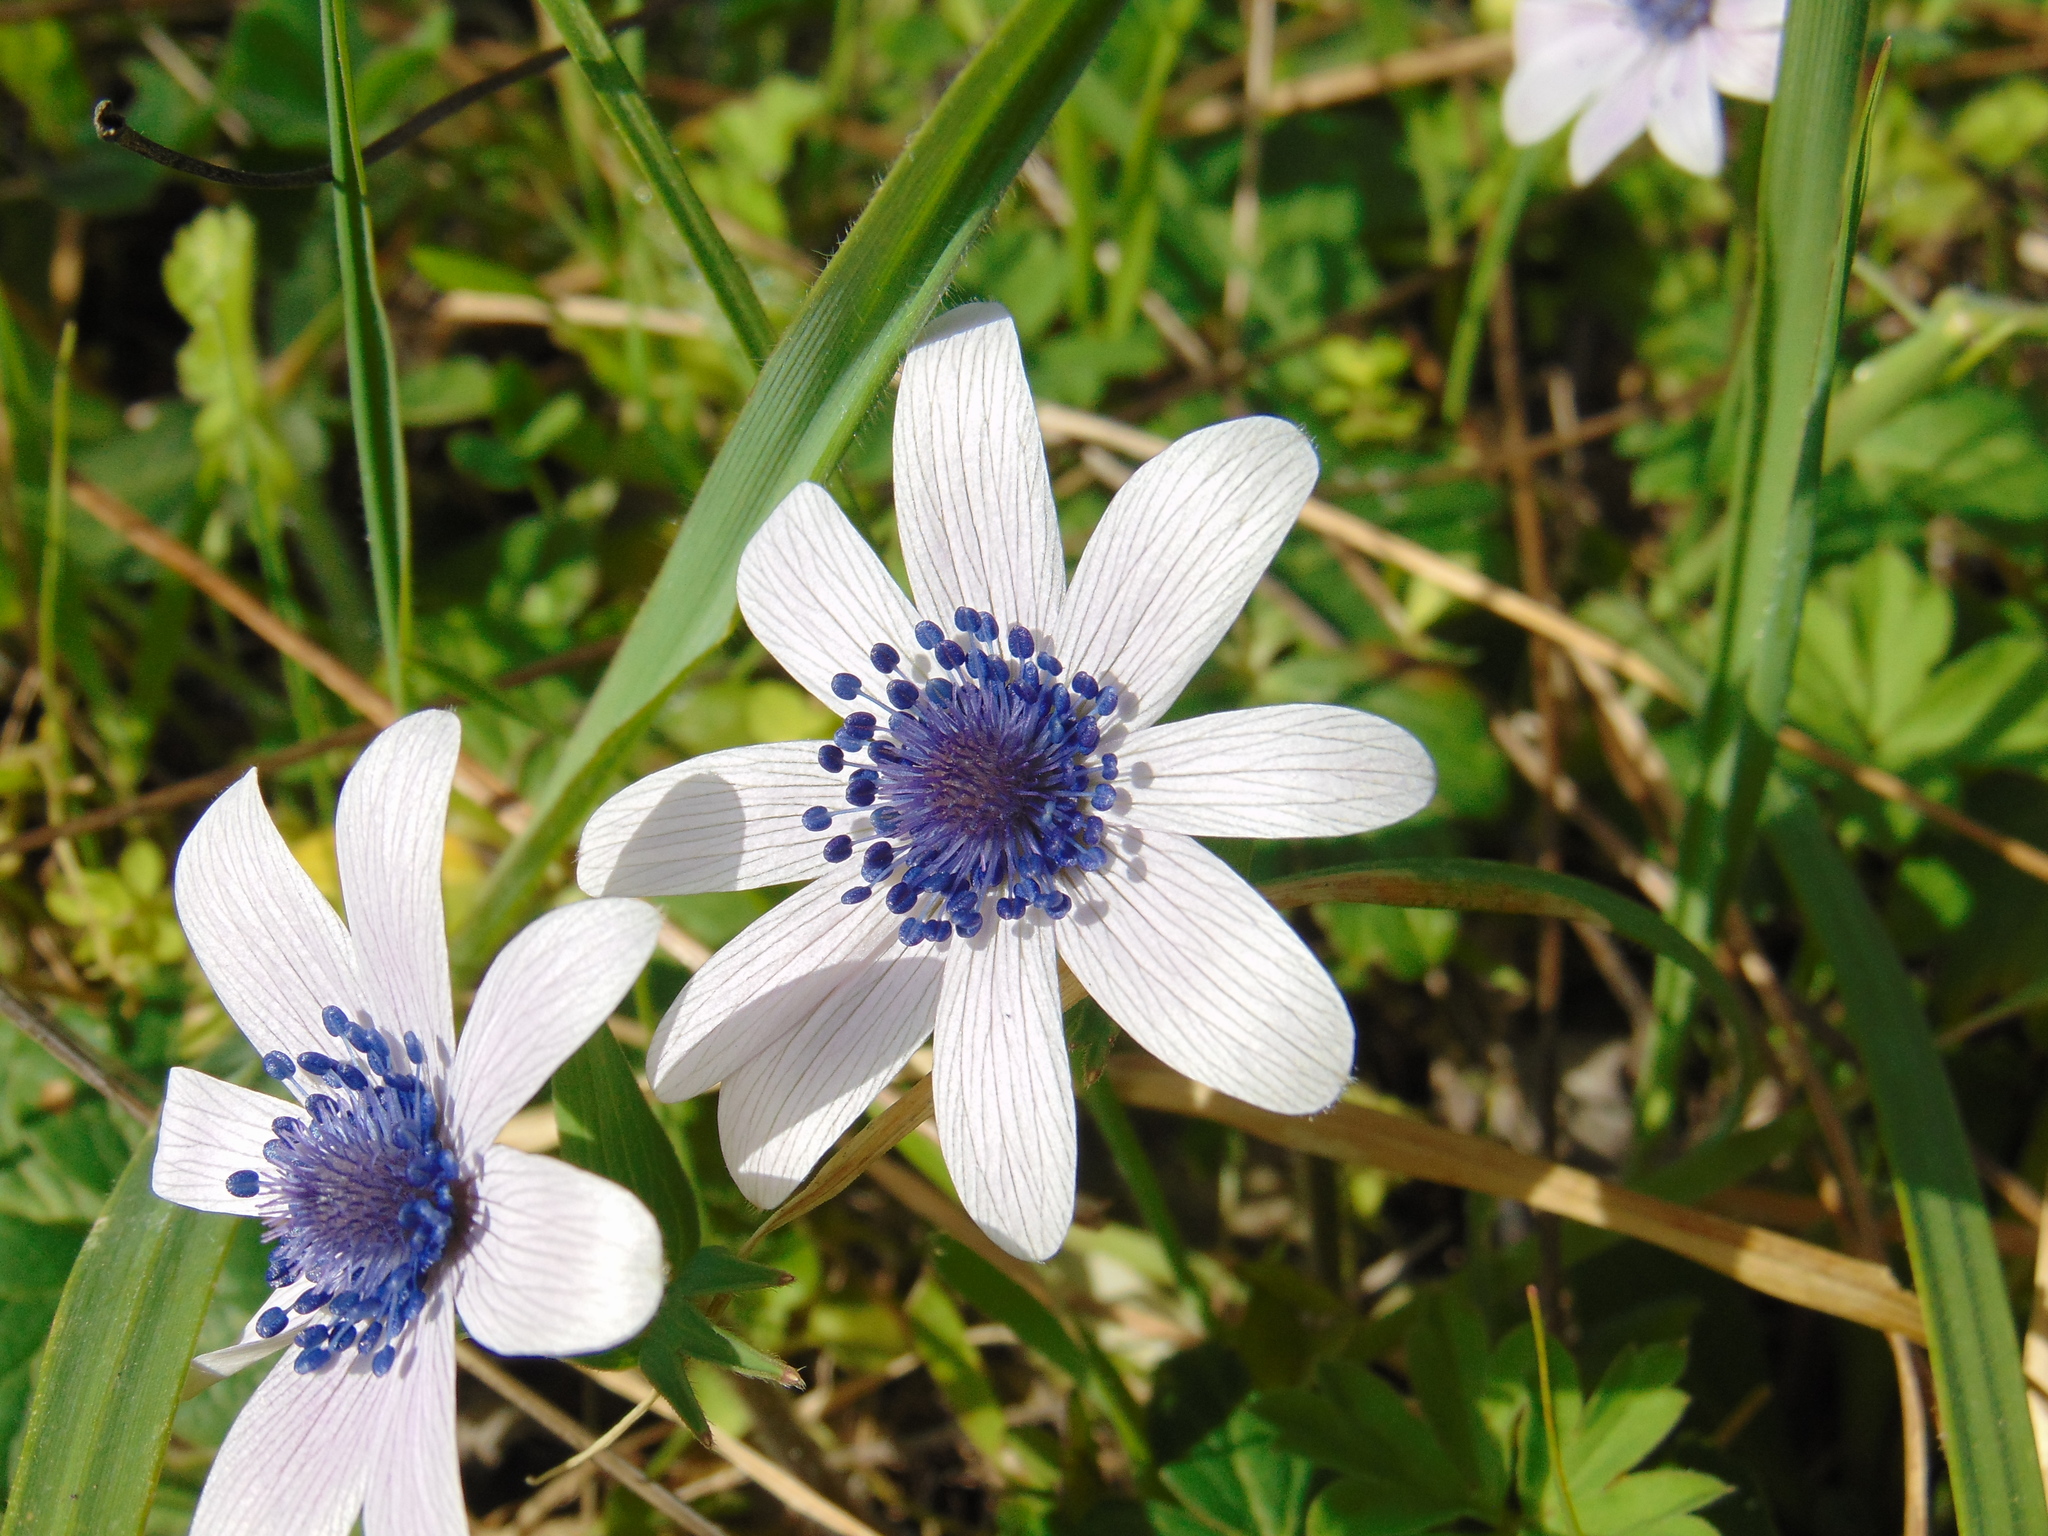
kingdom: Plantae
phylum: Tracheophyta
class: Magnoliopsida
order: Ranunculales
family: Ranunculaceae
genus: Anemone
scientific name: Anemone hortensis
